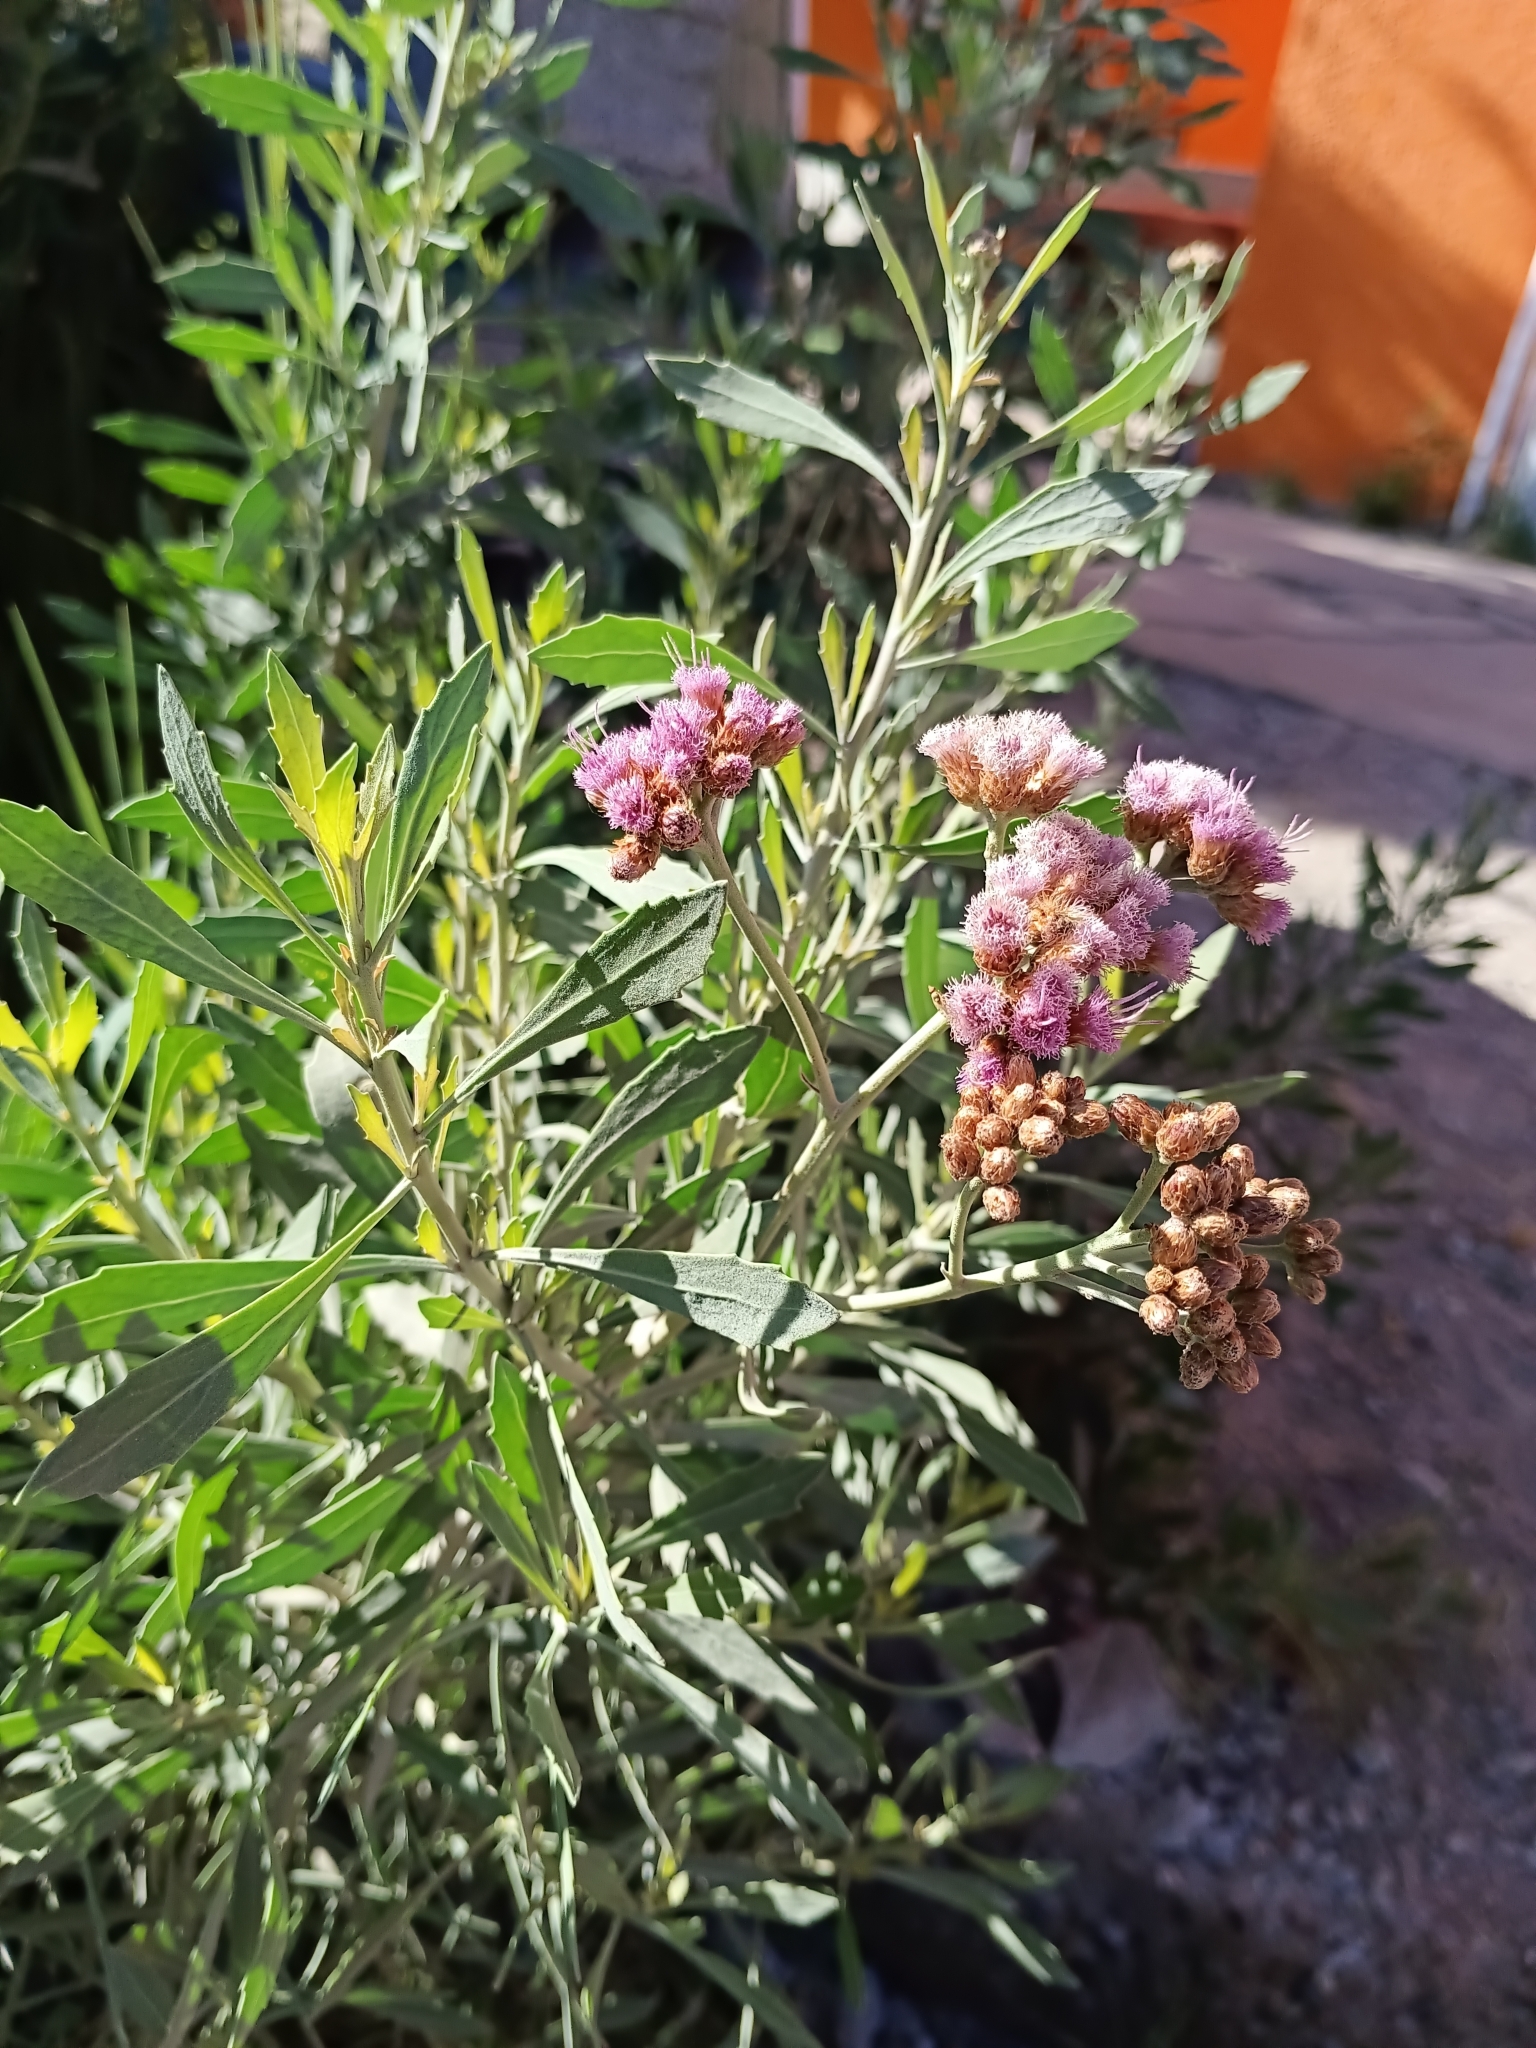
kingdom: Plantae
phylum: Tracheophyta
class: Magnoliopsida
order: Asterales
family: Asteraceae
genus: Tessaria
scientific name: Tessaria absinthioides
